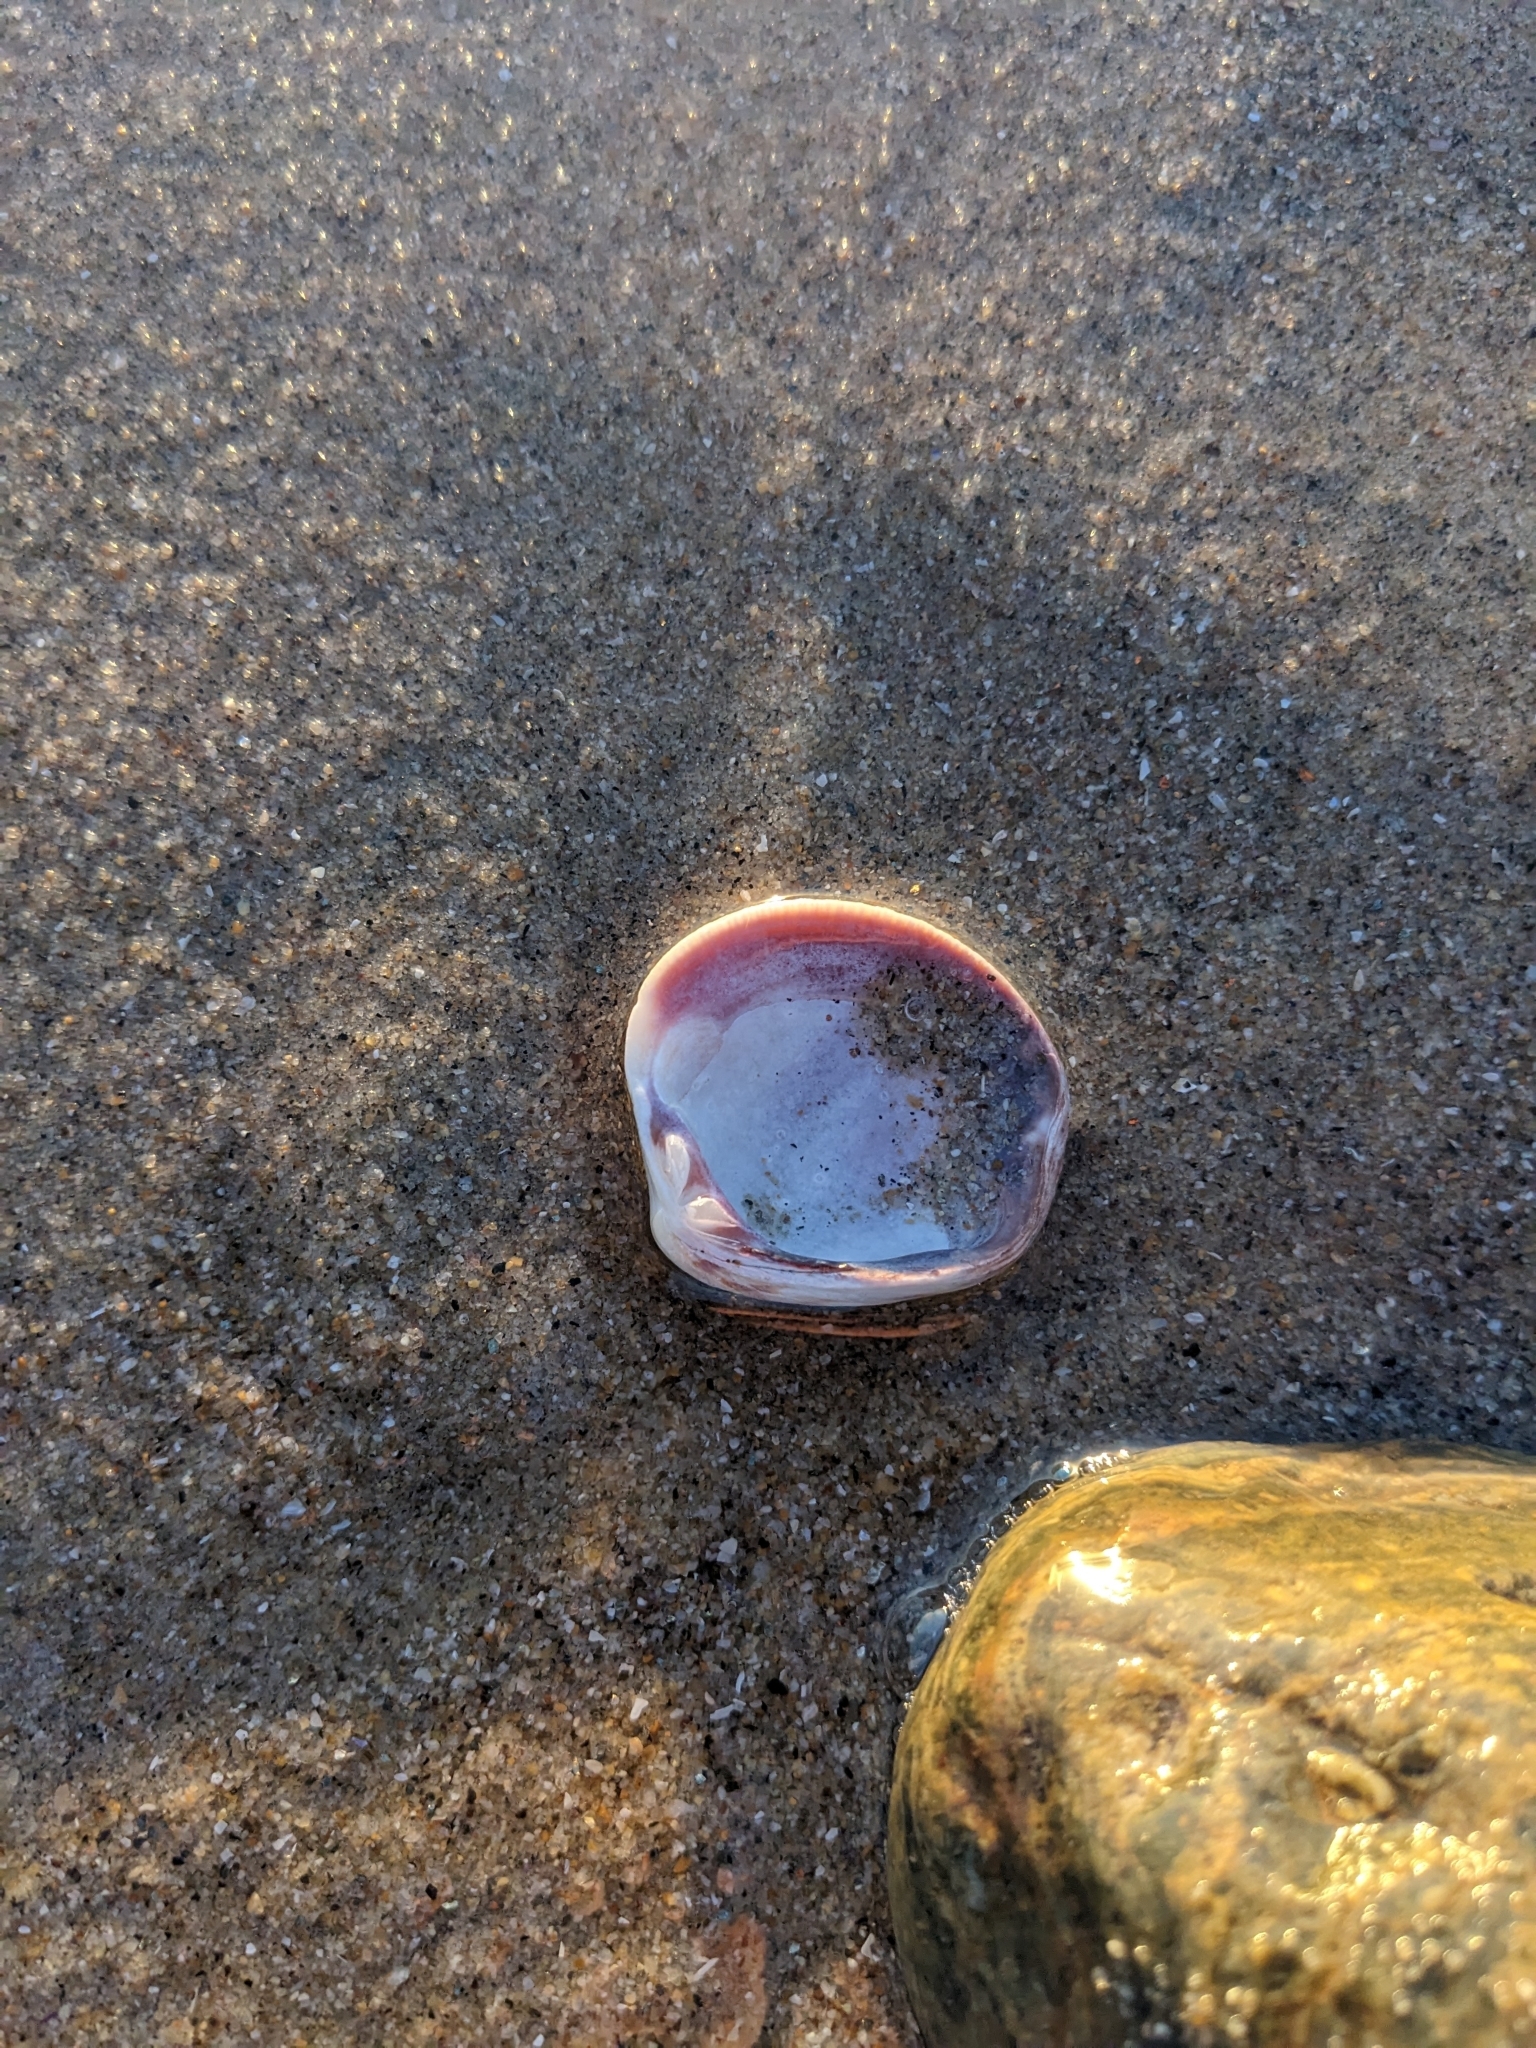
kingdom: Animalia
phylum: Mollusca
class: Bivalvia
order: Venerida
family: Veneridae
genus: Chione
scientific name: Chione undatella
